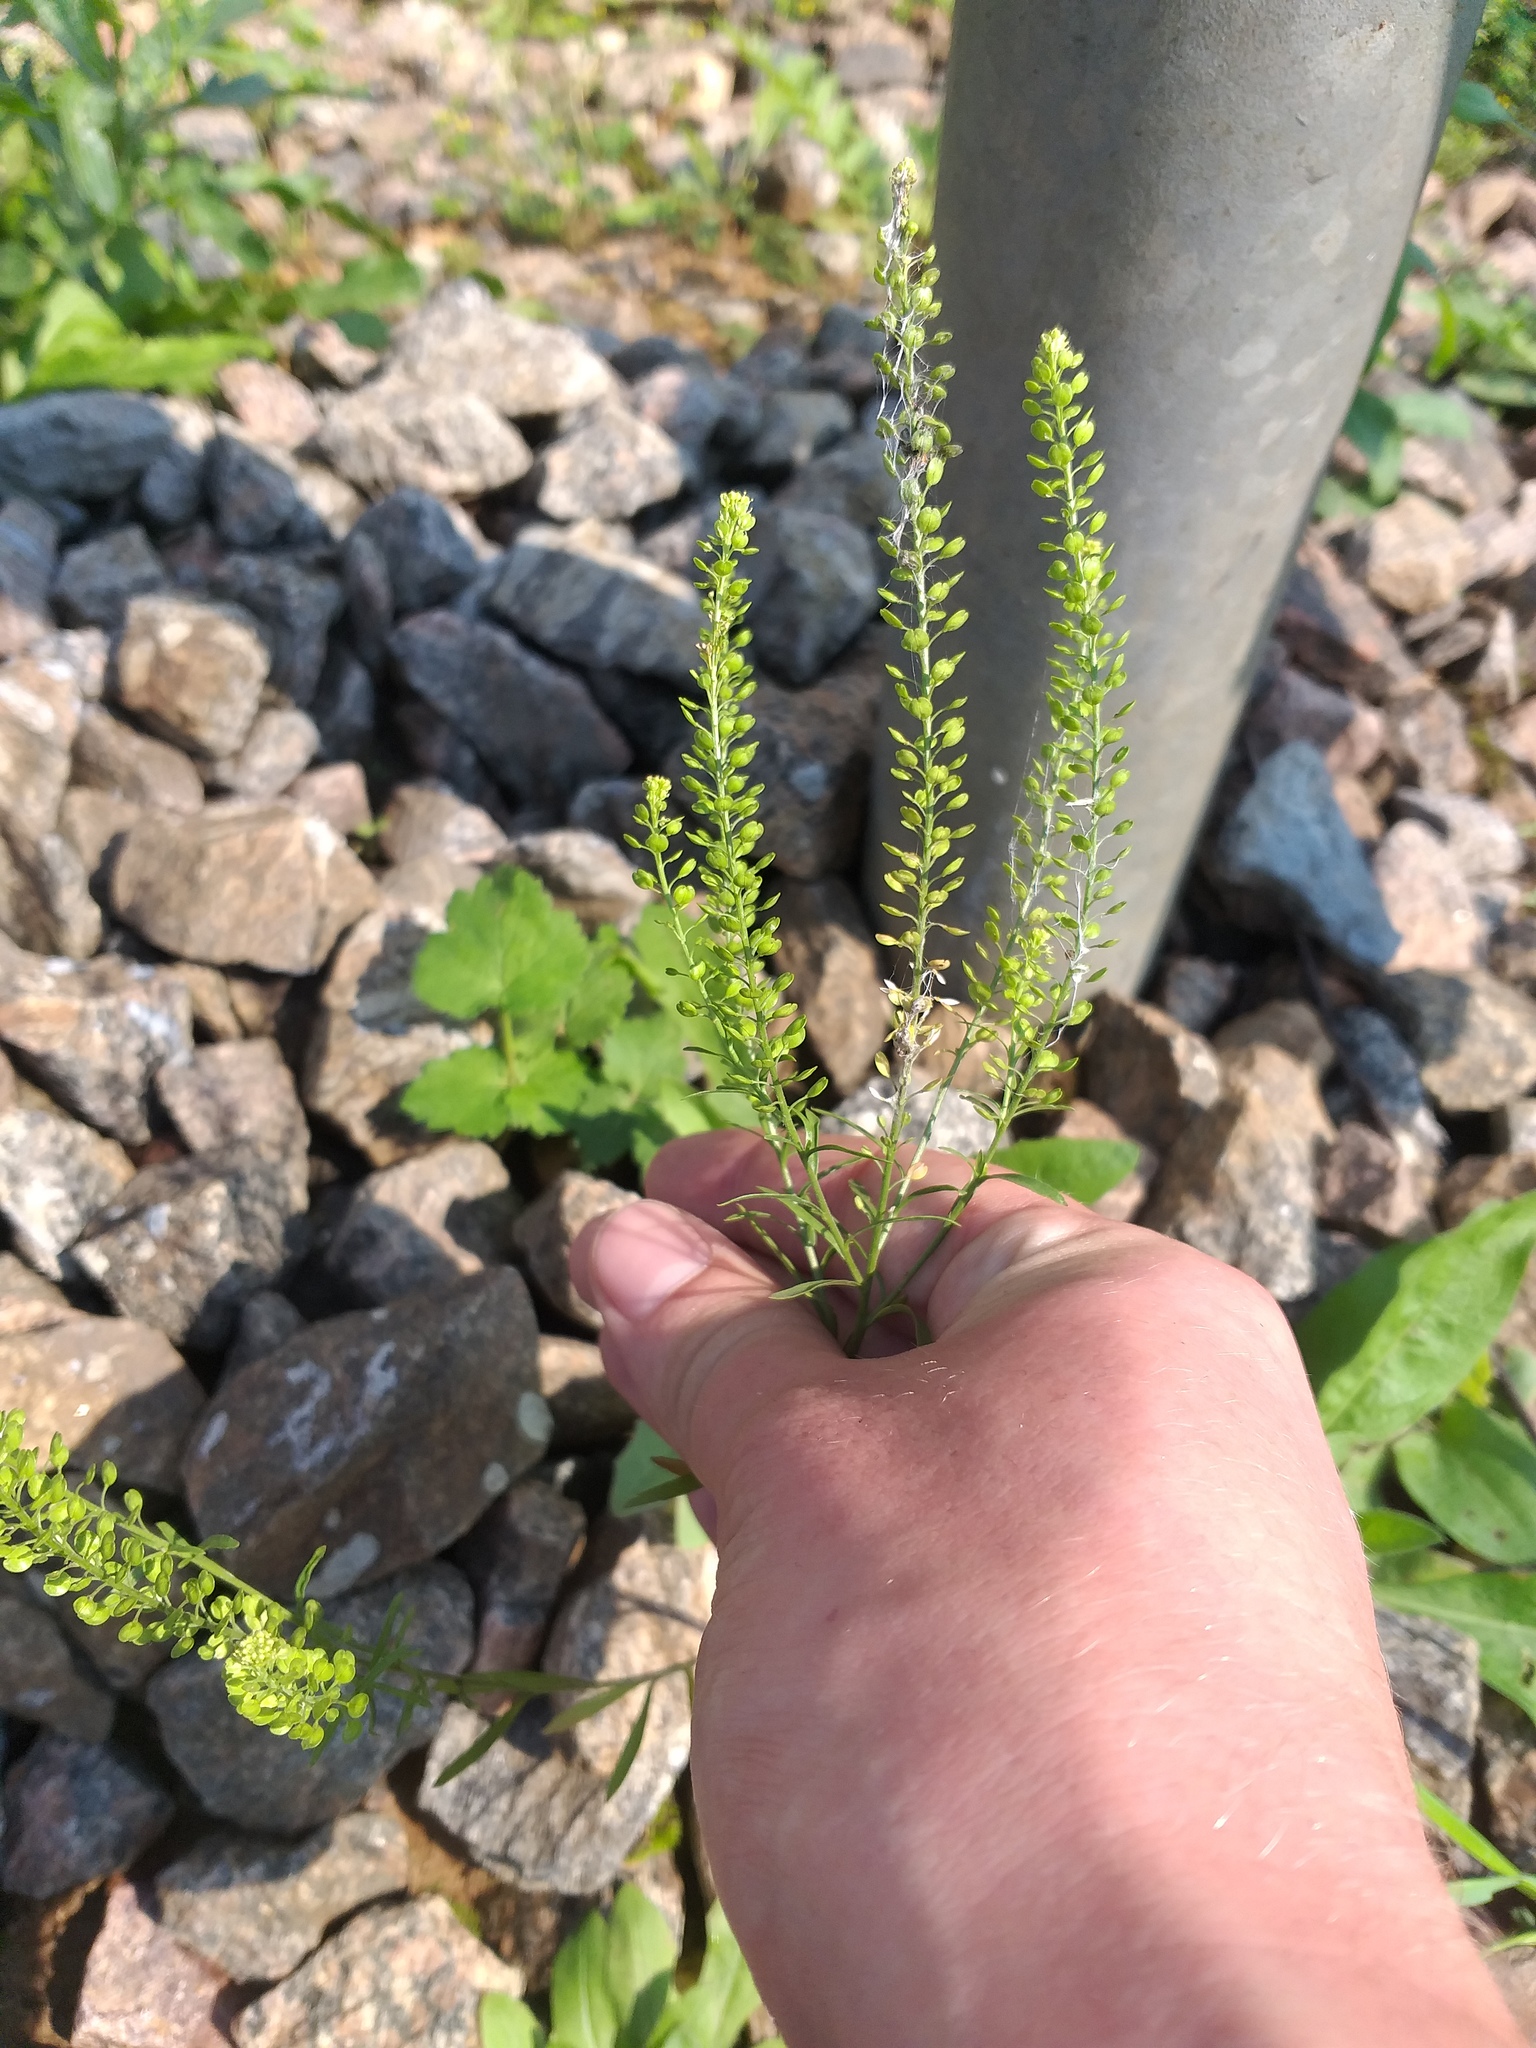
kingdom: Plantae
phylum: Tracheophyta
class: Magnoliopsida
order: Brassicales
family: Brassicaceae
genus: Lepidium
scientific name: Lepidium densiflorum
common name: Miner's pepperwort
